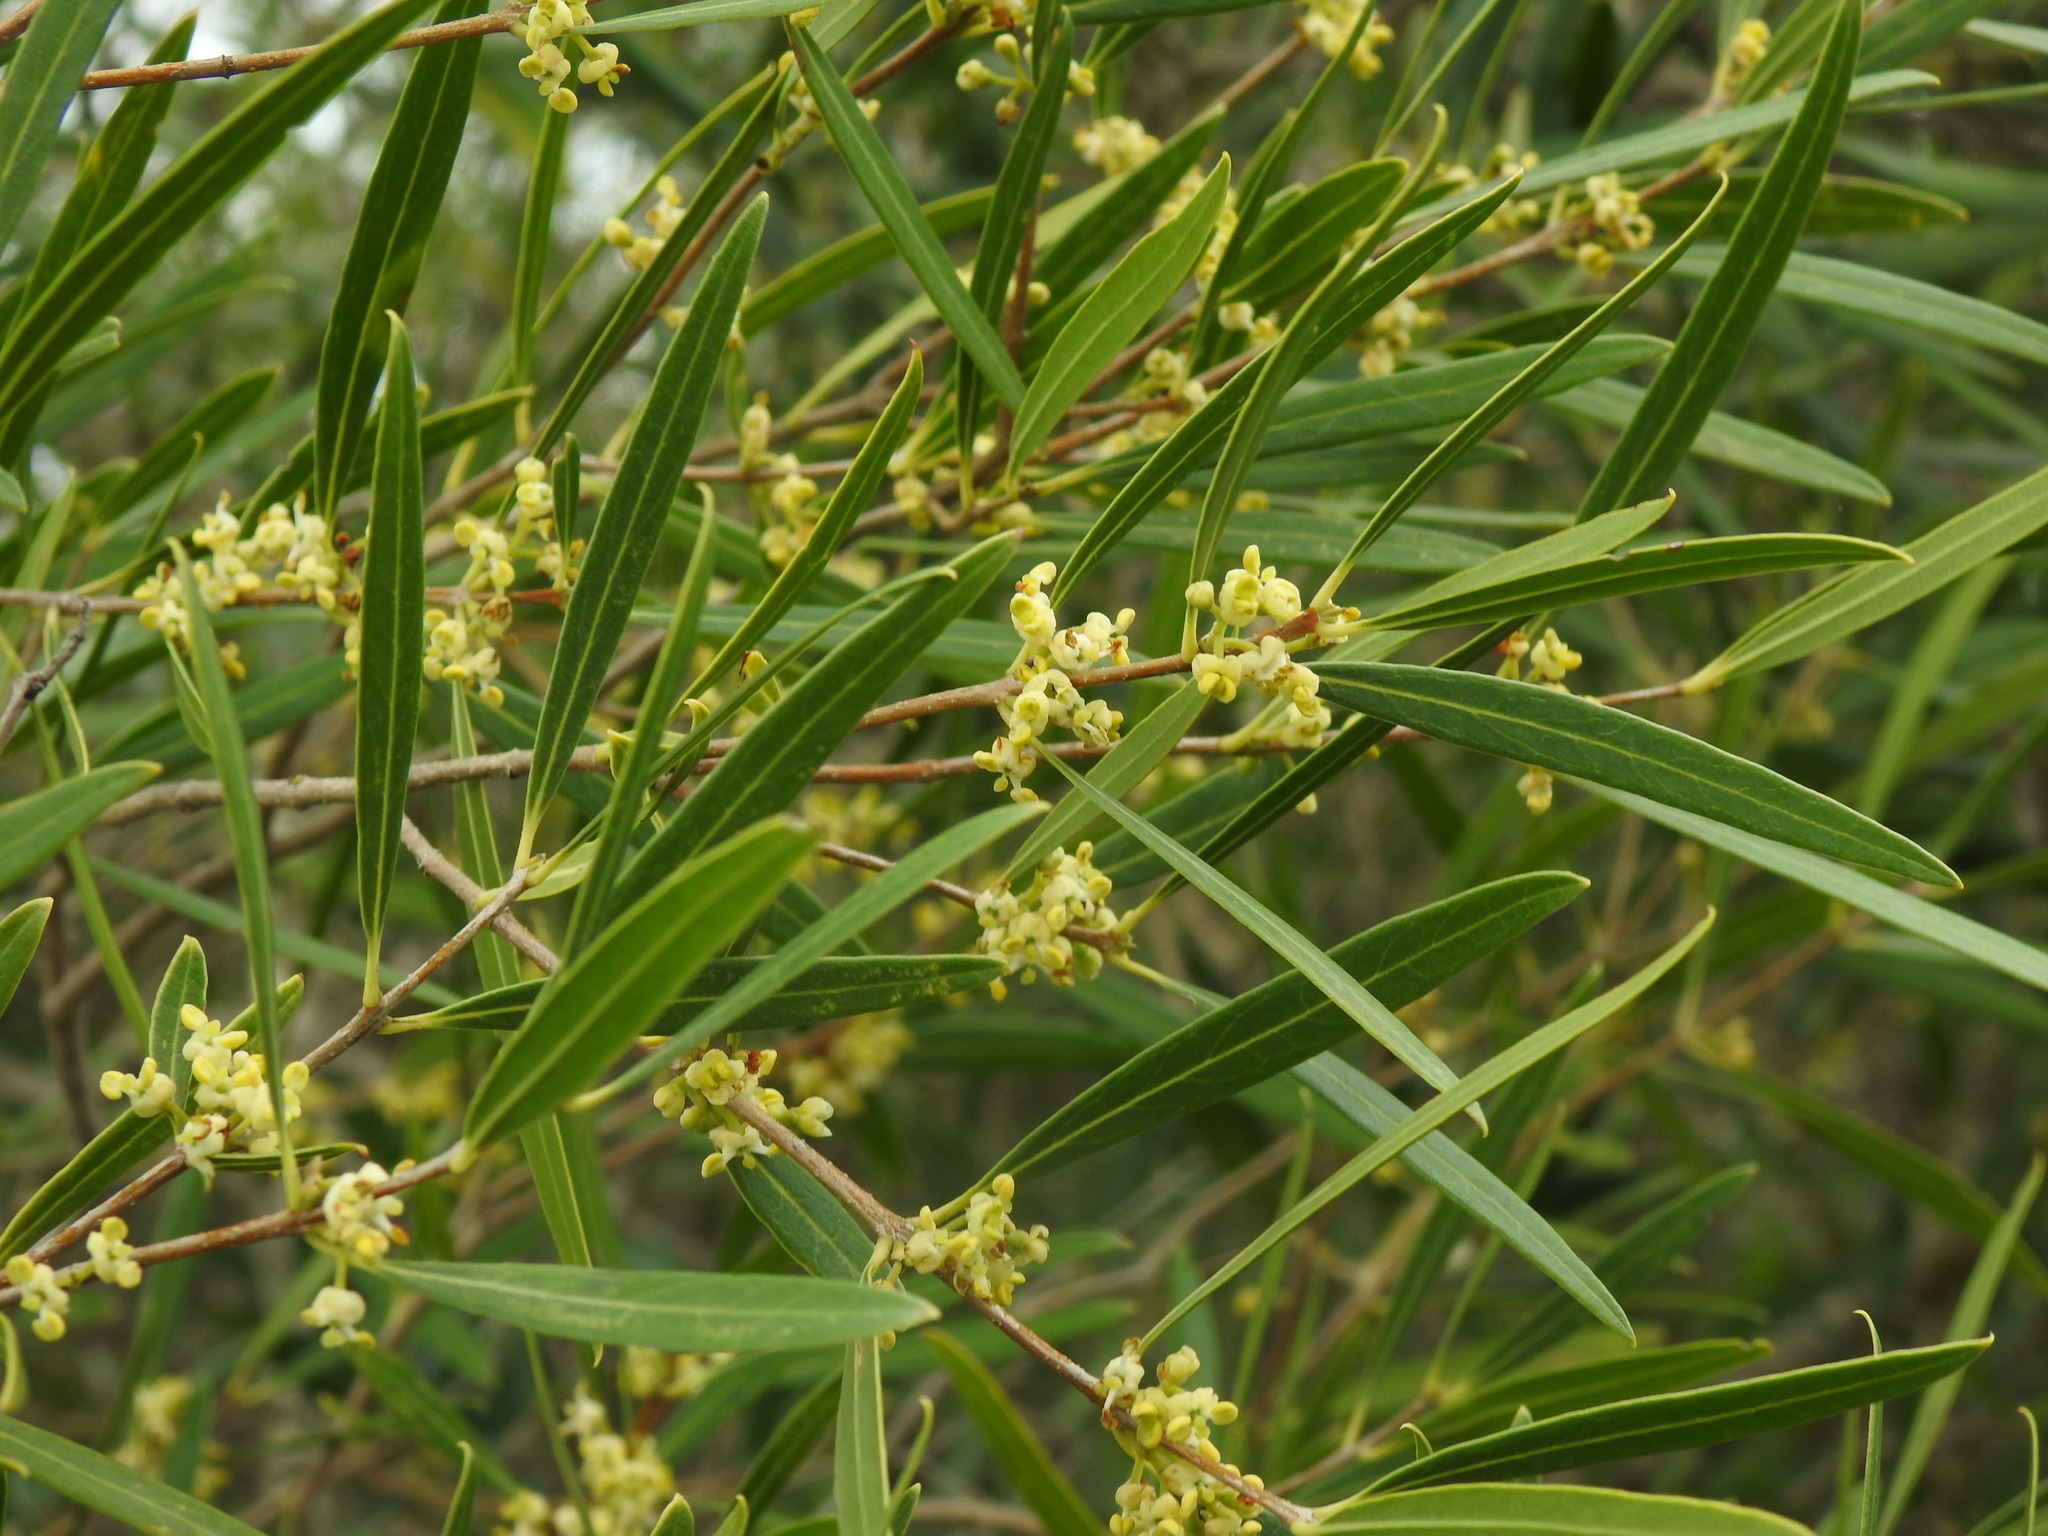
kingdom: Plantae
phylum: Tracheophyta
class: Magnoliopsida
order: Lamiales
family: Oleaceae
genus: Phillyrea
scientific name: Phillyrea angustifolia
